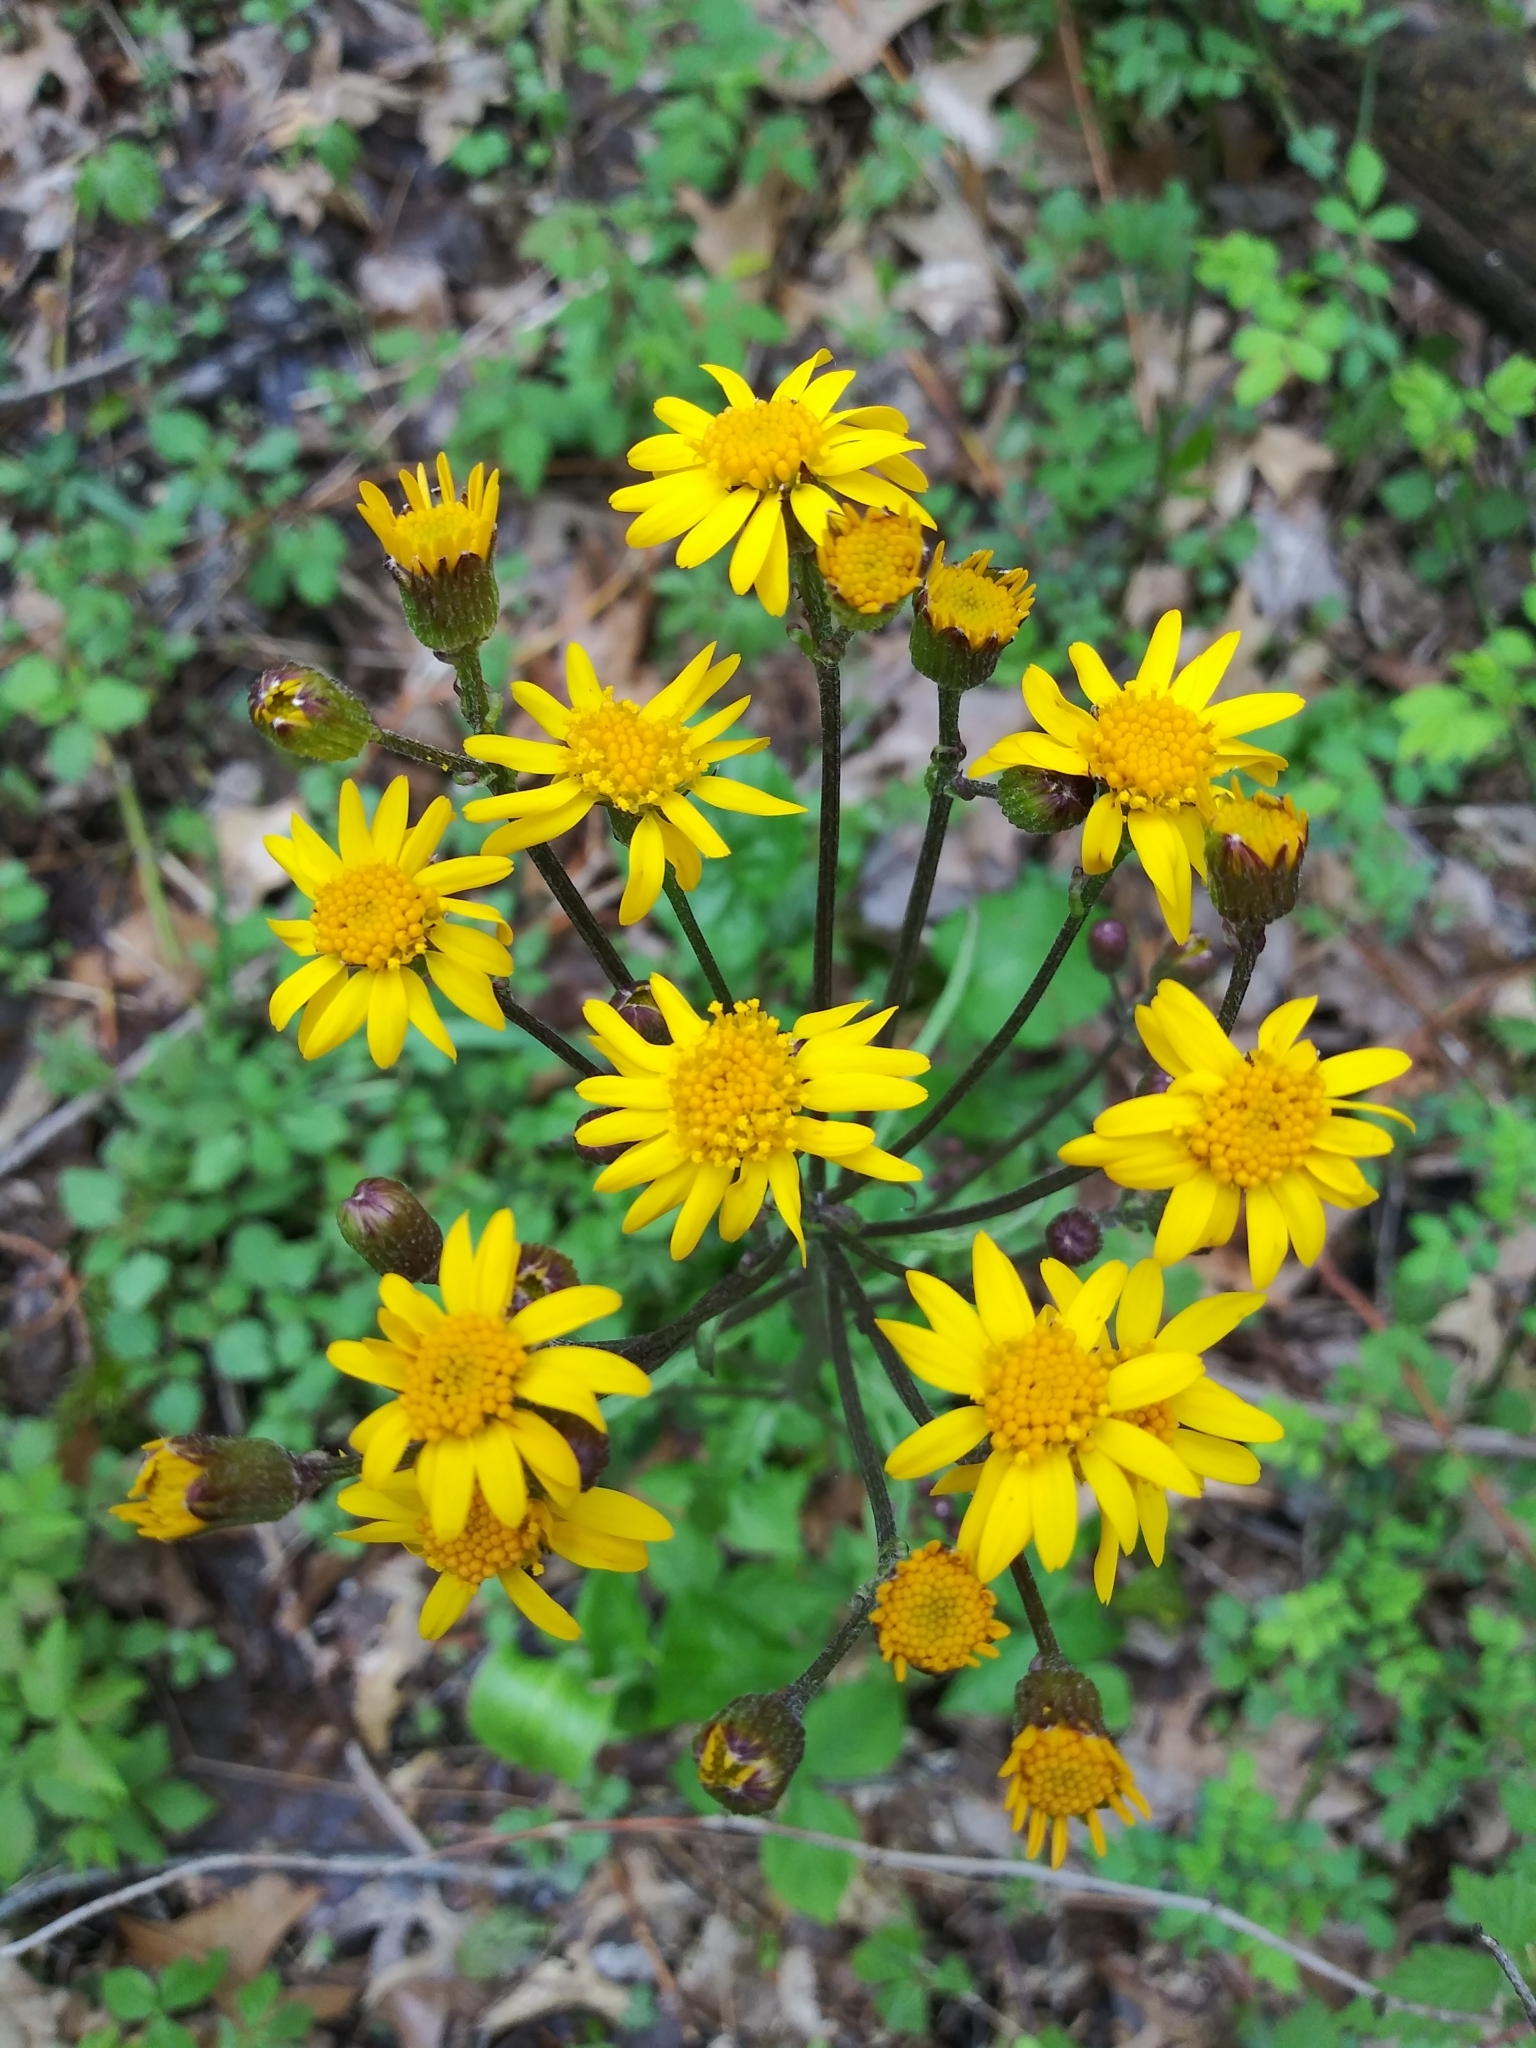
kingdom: Plantae
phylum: Tracheophyta
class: Magnoliopsida
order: Asterales
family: Asteraceae
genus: Packera
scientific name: Packera aurea
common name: Golden groundsel
